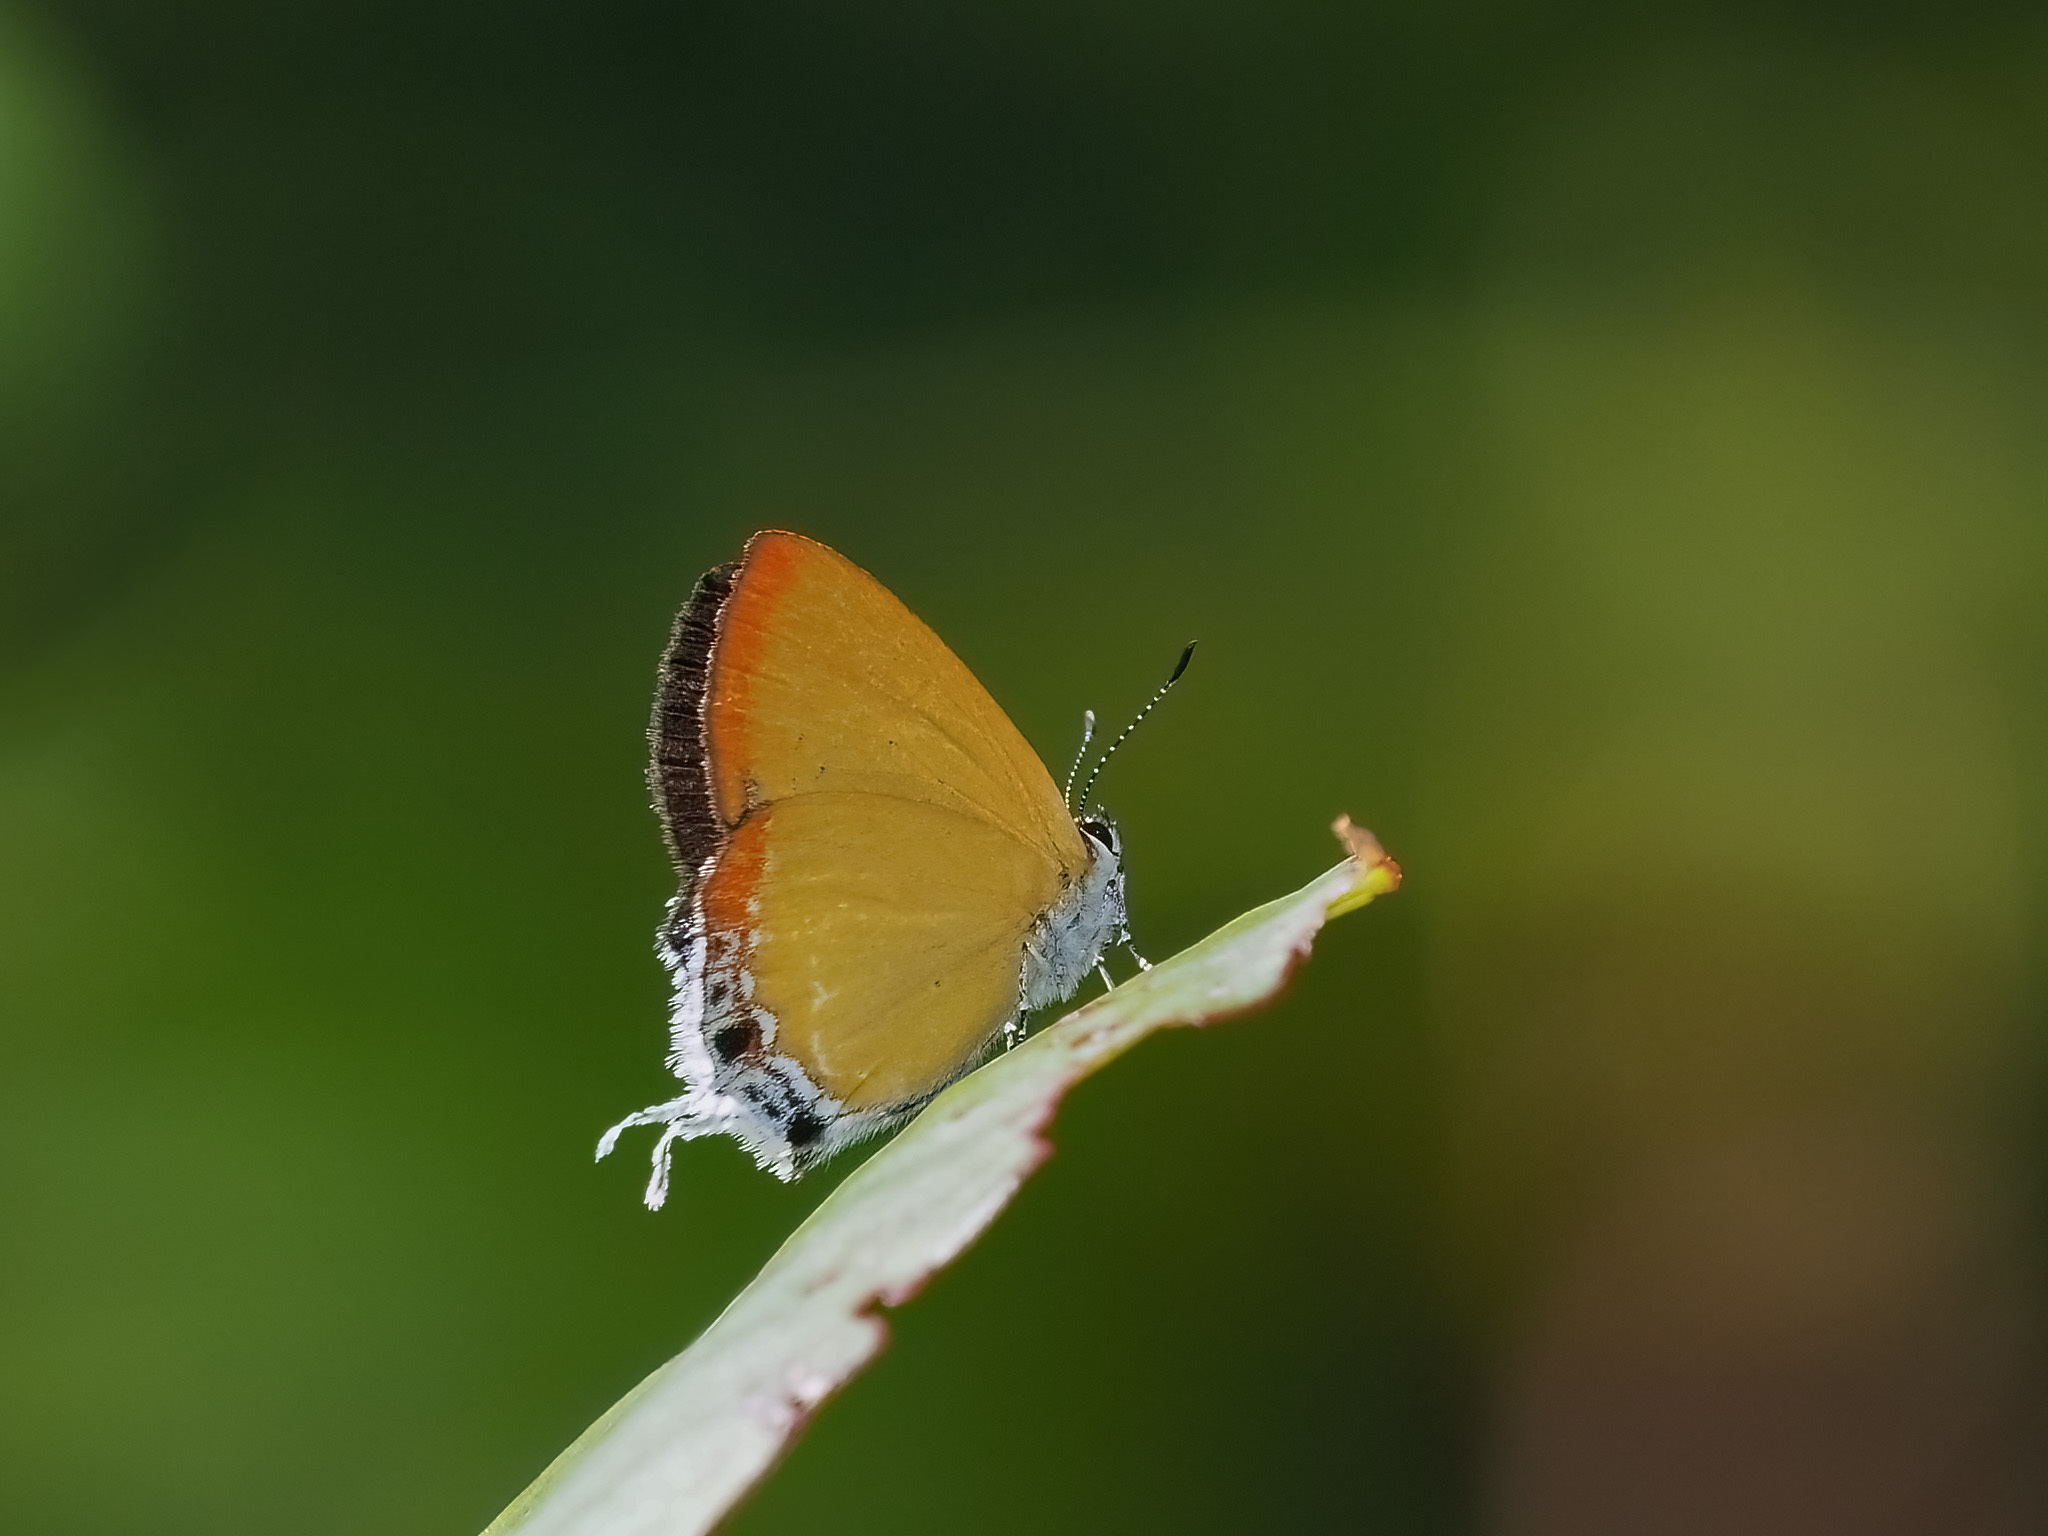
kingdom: Animalia
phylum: Arthropoda
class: Insecta
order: Lepidoptera
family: Lycaenidae
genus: Heliophorus
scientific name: Heliophorus
